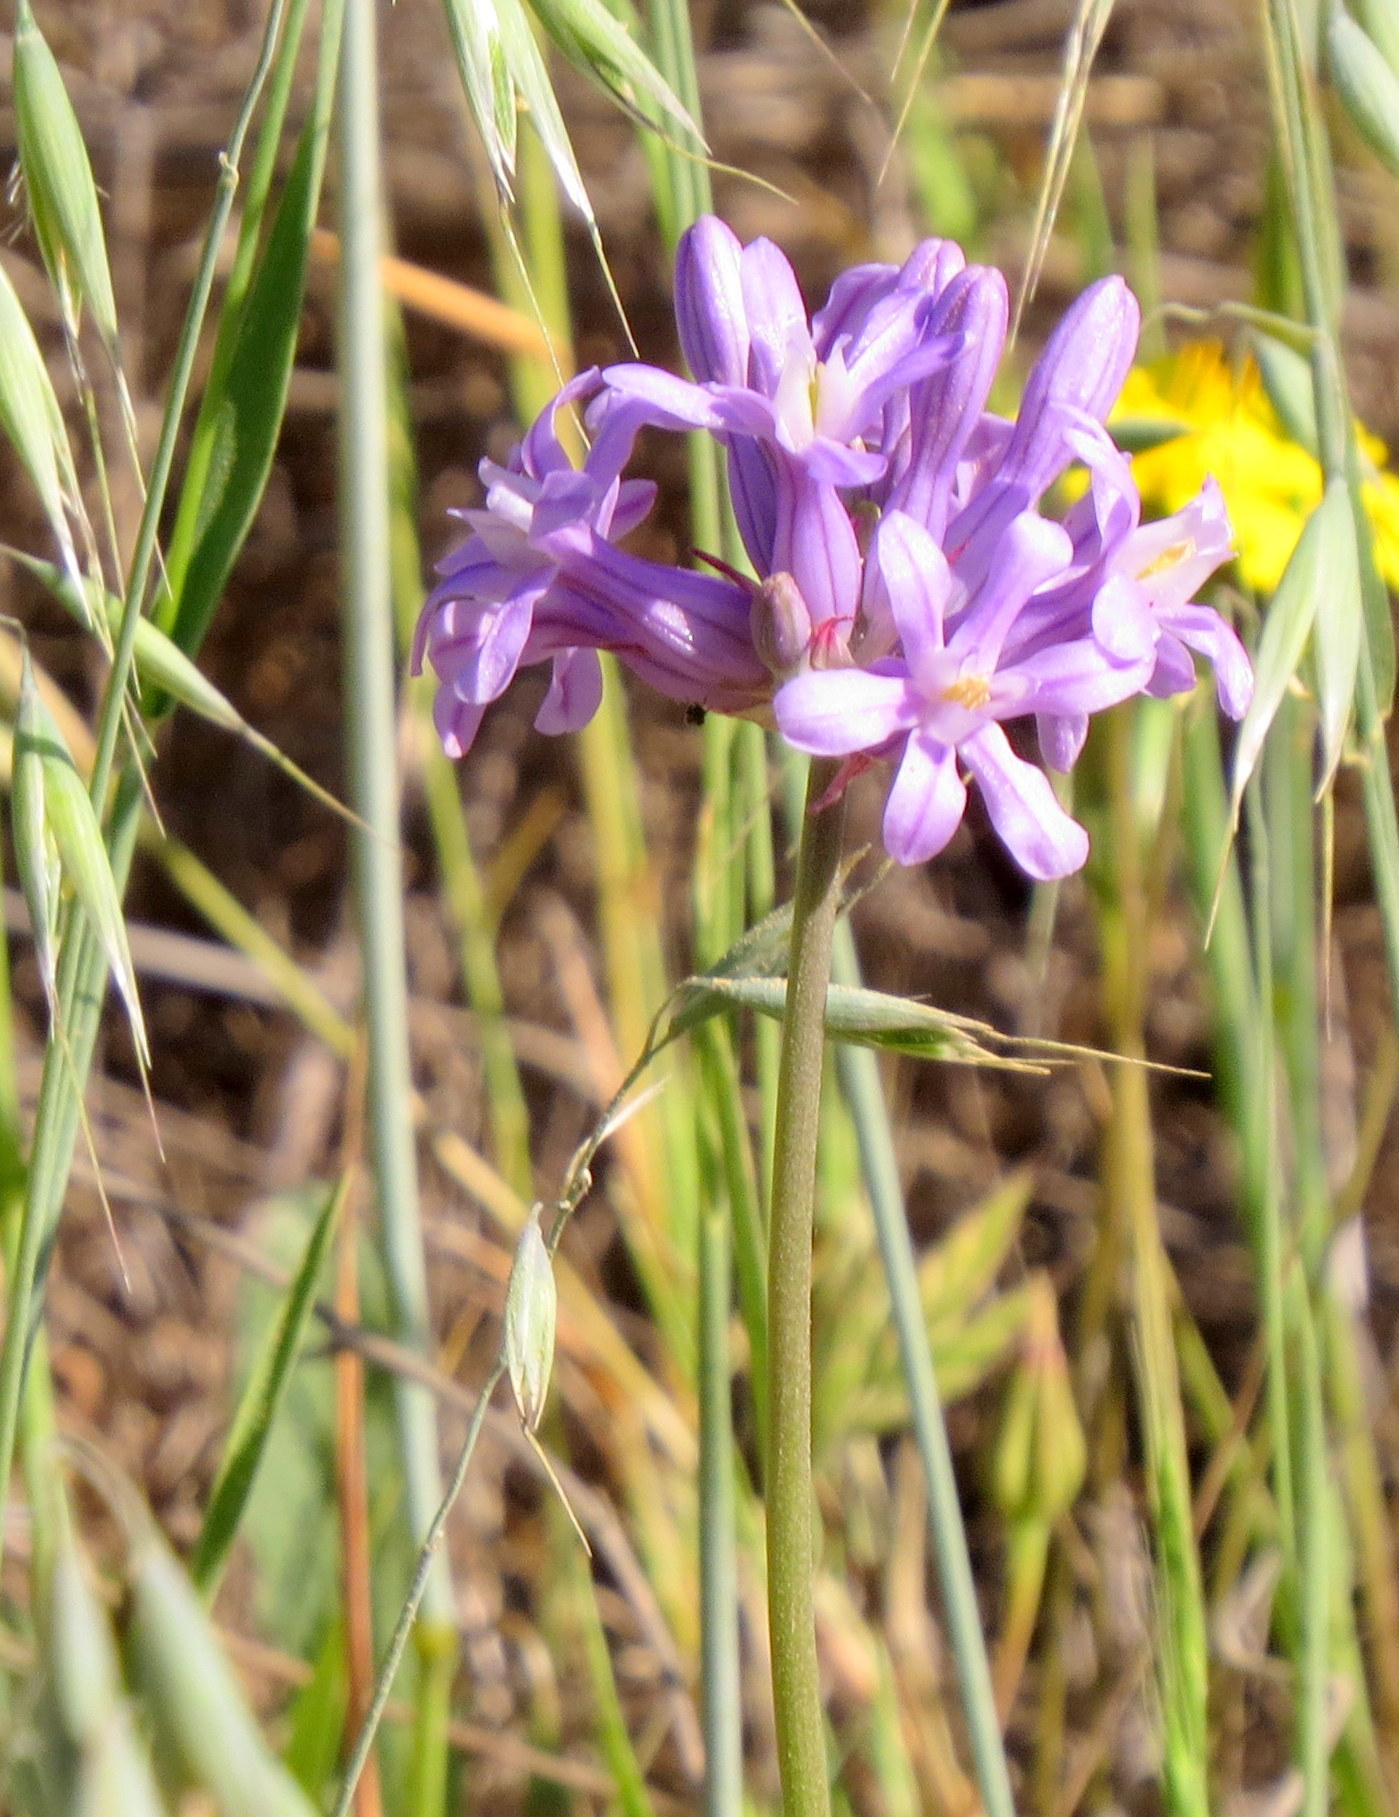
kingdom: Plantae
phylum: Tracheophyta
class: Liliopsida
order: Asparagales
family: Asparagaceae
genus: Dichelostemma
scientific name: Dichelostemma multiflorum
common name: Round-tooth ookow
